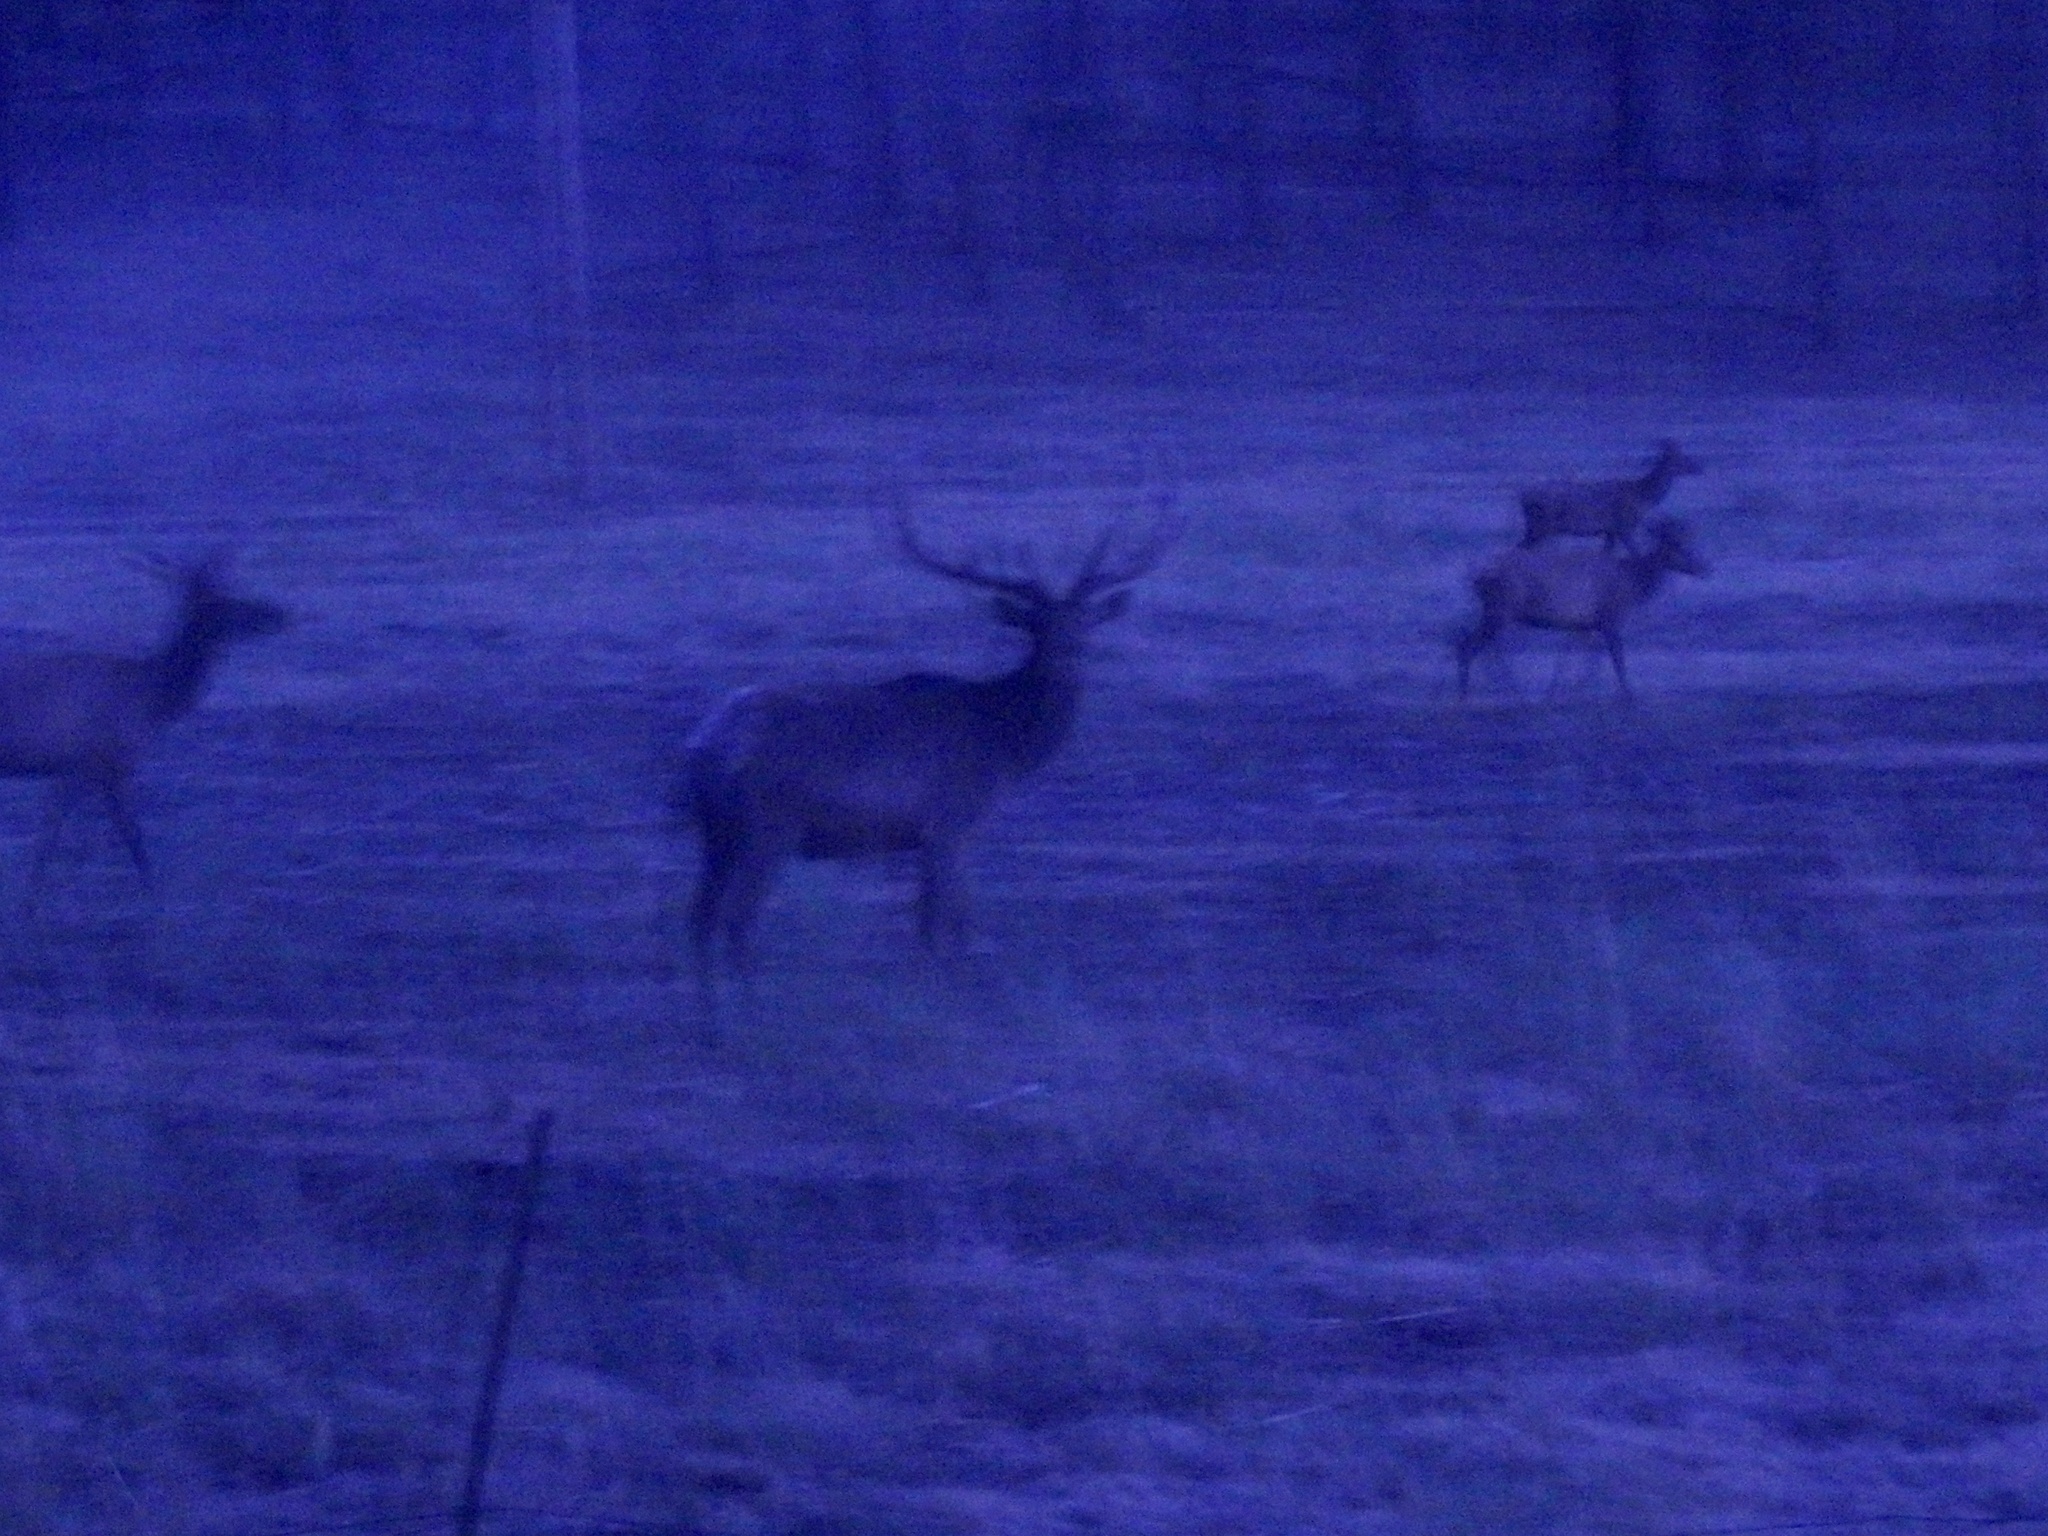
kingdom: Animalia
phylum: Chordata
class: Mammalia
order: Artiodactyla
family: Cervidae
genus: Cervus
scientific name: Cervus elaphus
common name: Red deer
